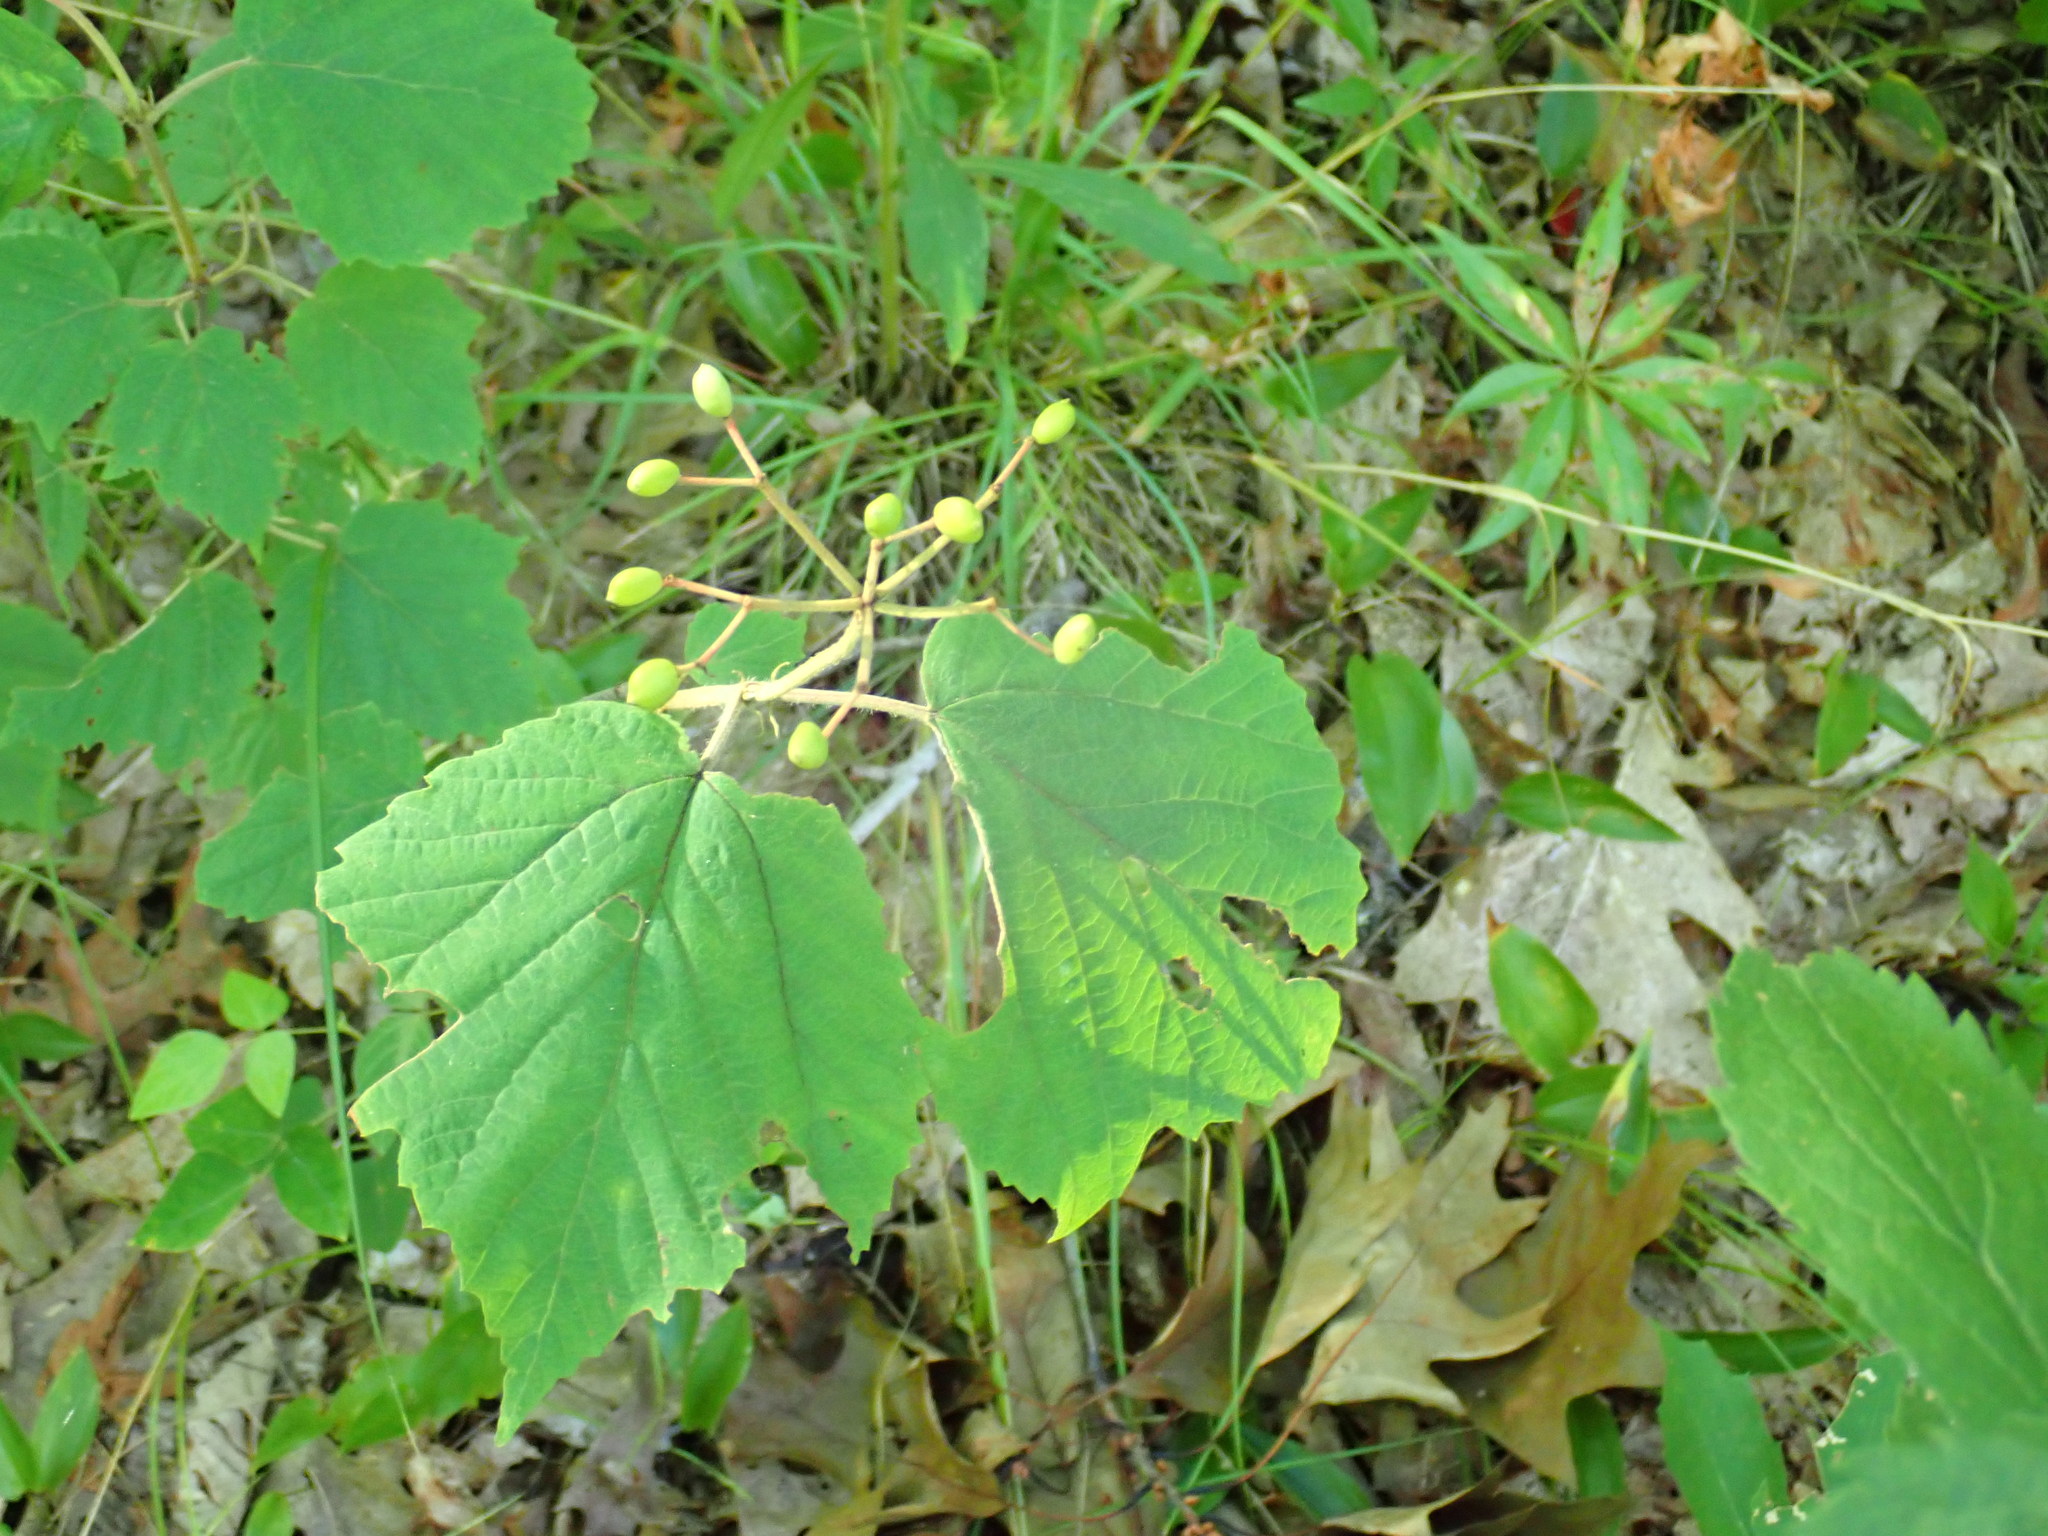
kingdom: Plantae
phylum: Tracheophyta
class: Magnoliopsida
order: Dipsacales
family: Viburnaceae
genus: Viburnum
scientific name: Viburnum acerifolium
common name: Dockmackie
